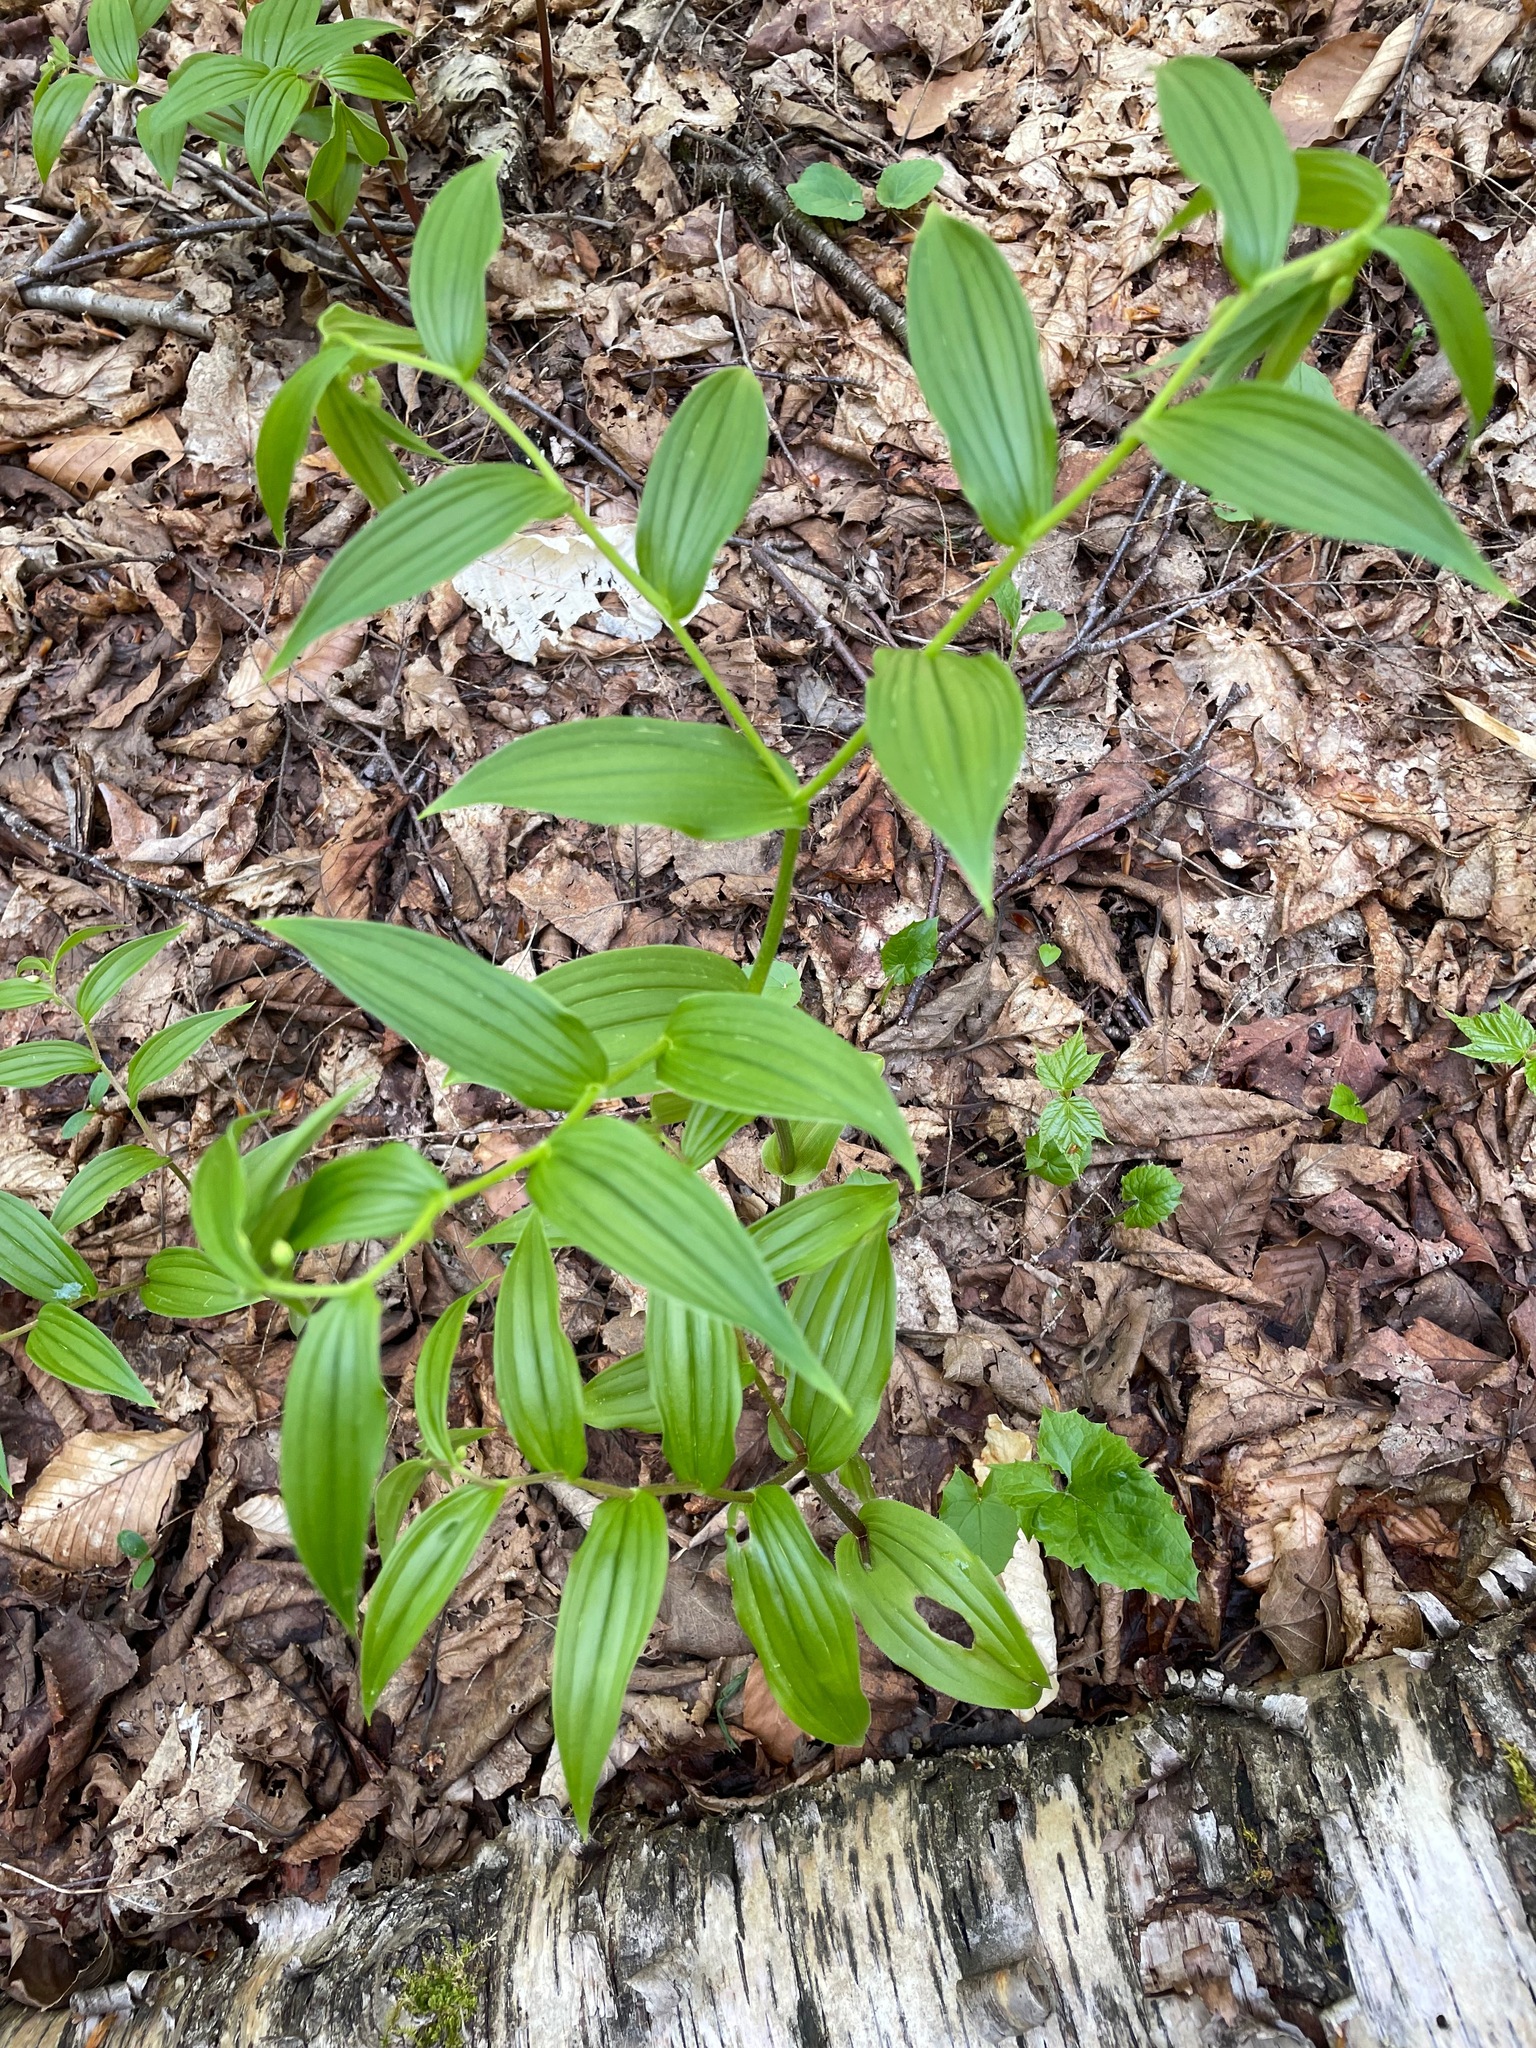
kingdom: Plantae
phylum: Tracheophyta
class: Liliopsida
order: Liliales
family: Liliaceae
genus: Streptopus
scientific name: Streptopus lanceolatus
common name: Rose mandarin
